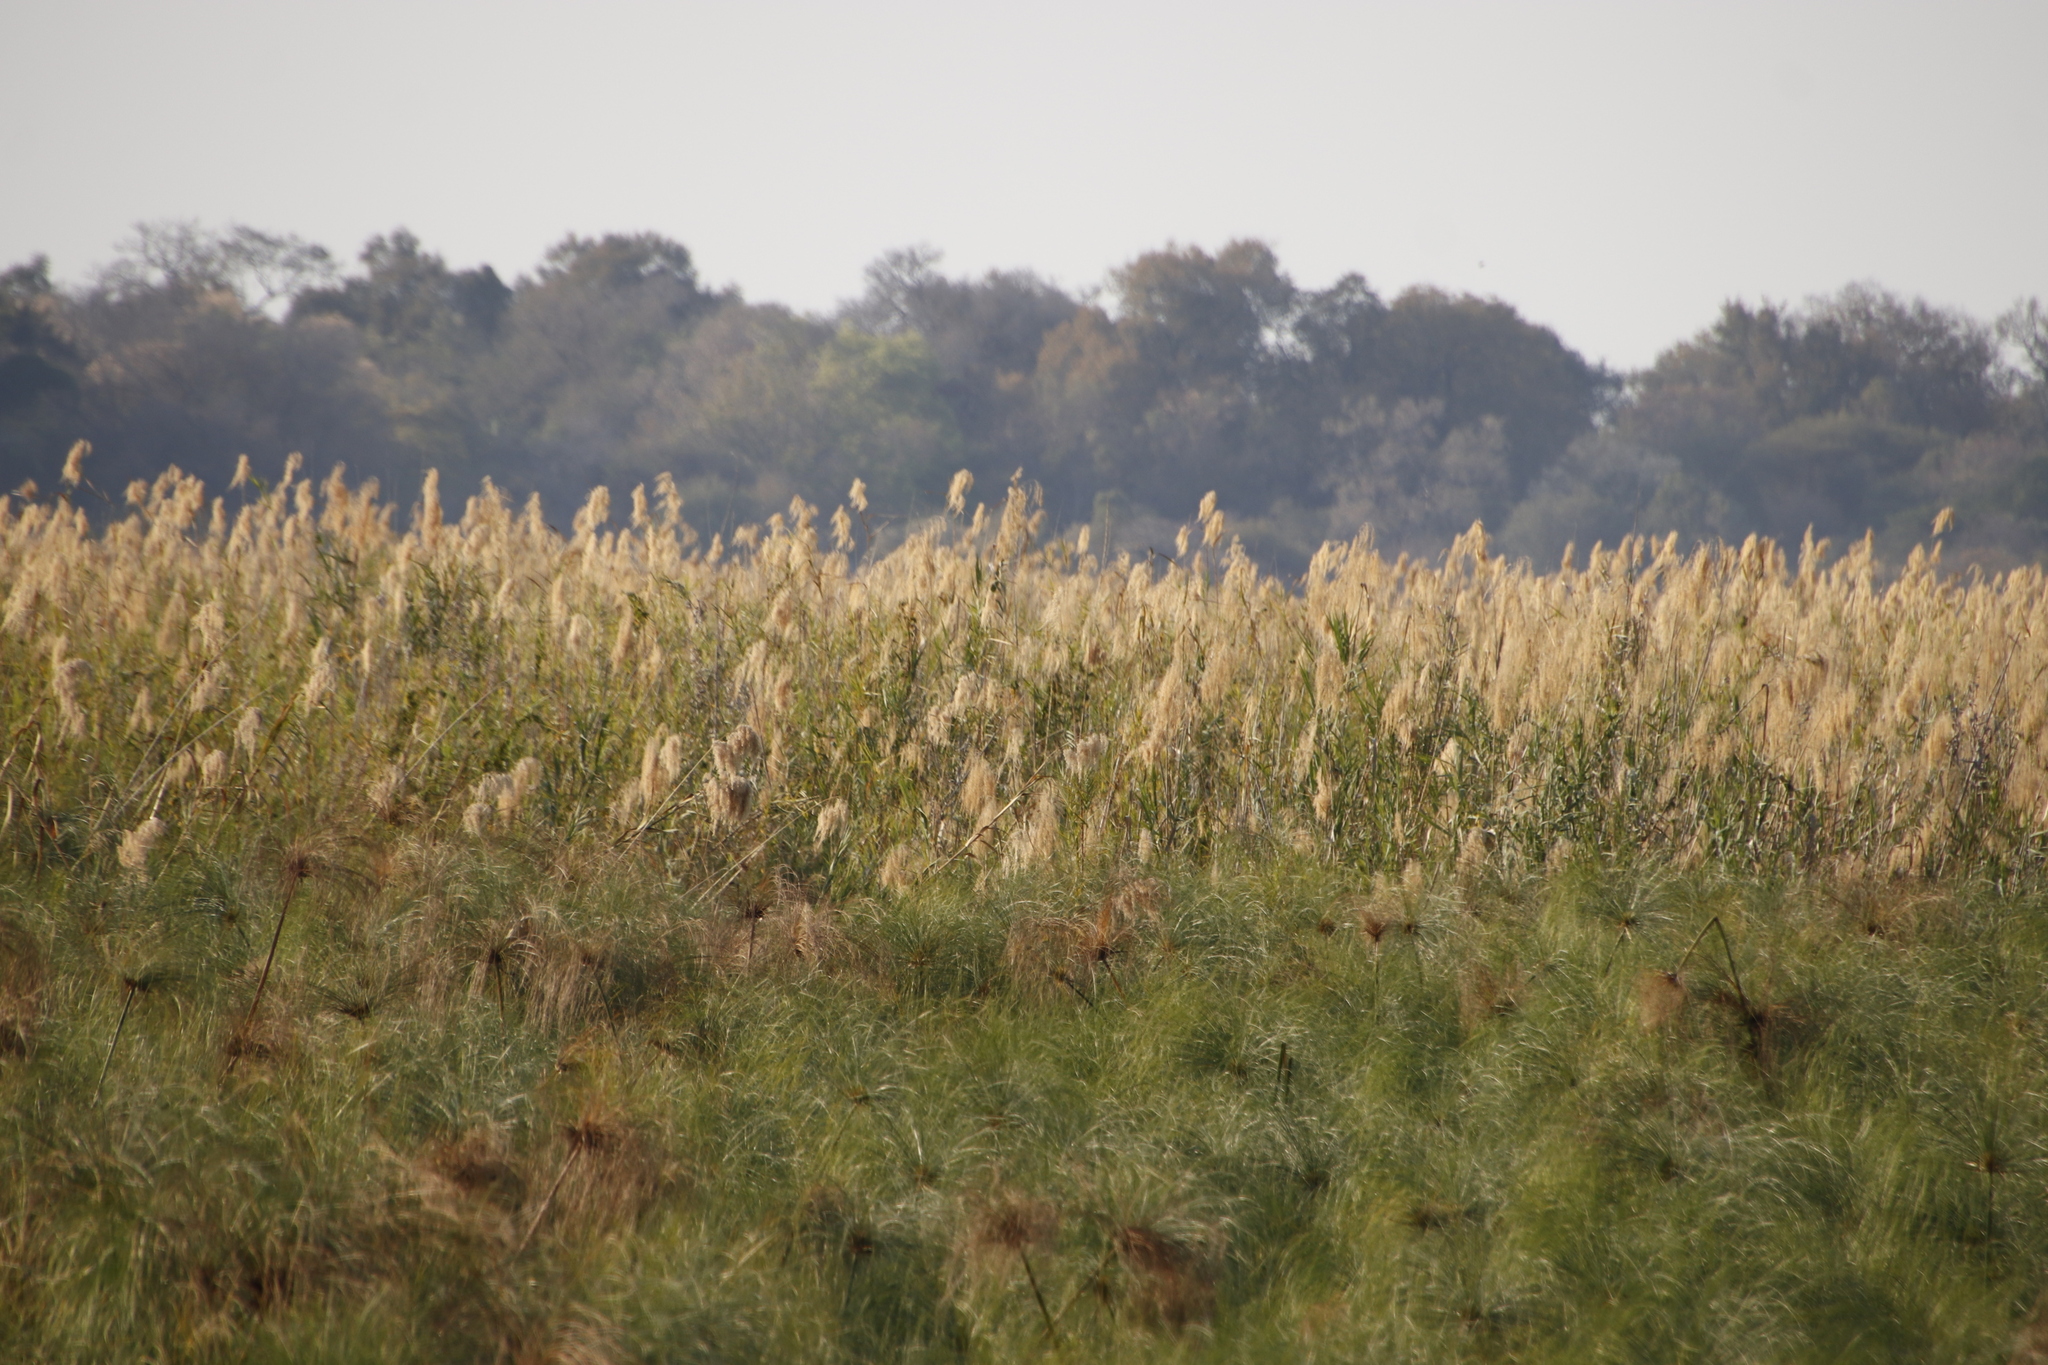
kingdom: Plantae
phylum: Tracheophyta
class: Liliopsida
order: Poales
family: Poaceae
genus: Phragmites
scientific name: Phragmites australis
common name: Common reed
